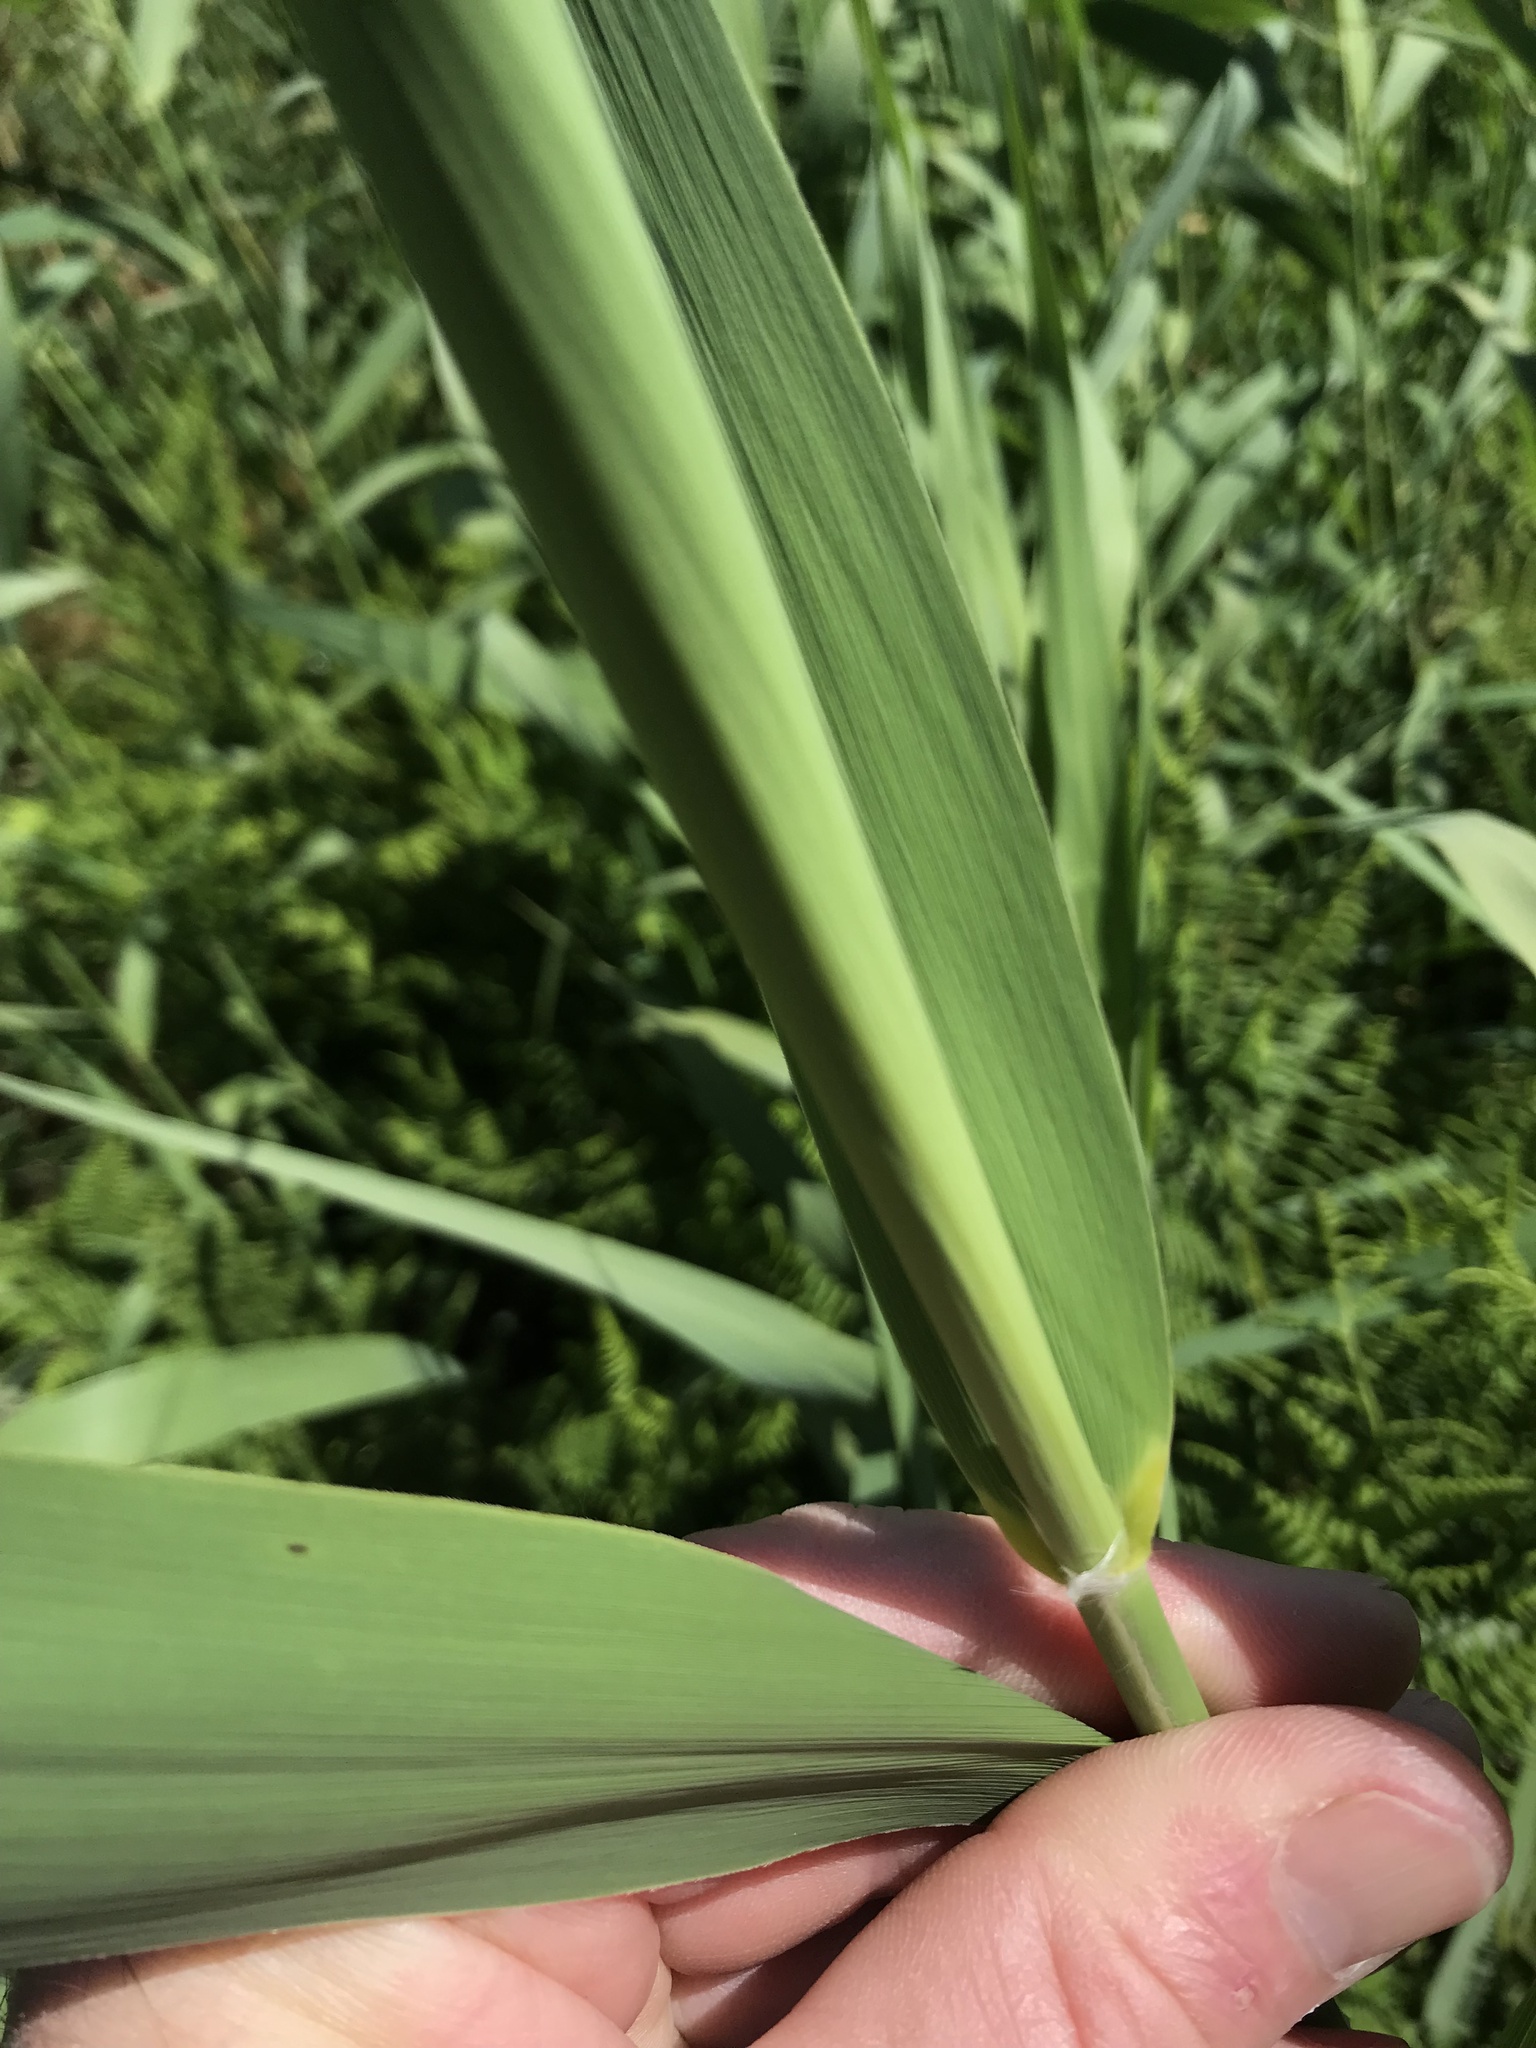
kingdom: Plantae
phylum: Tracheophyta
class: Liliopsida
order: Poales
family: Poaceae
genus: Phragmites
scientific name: Phragmites australis
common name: Common reed
